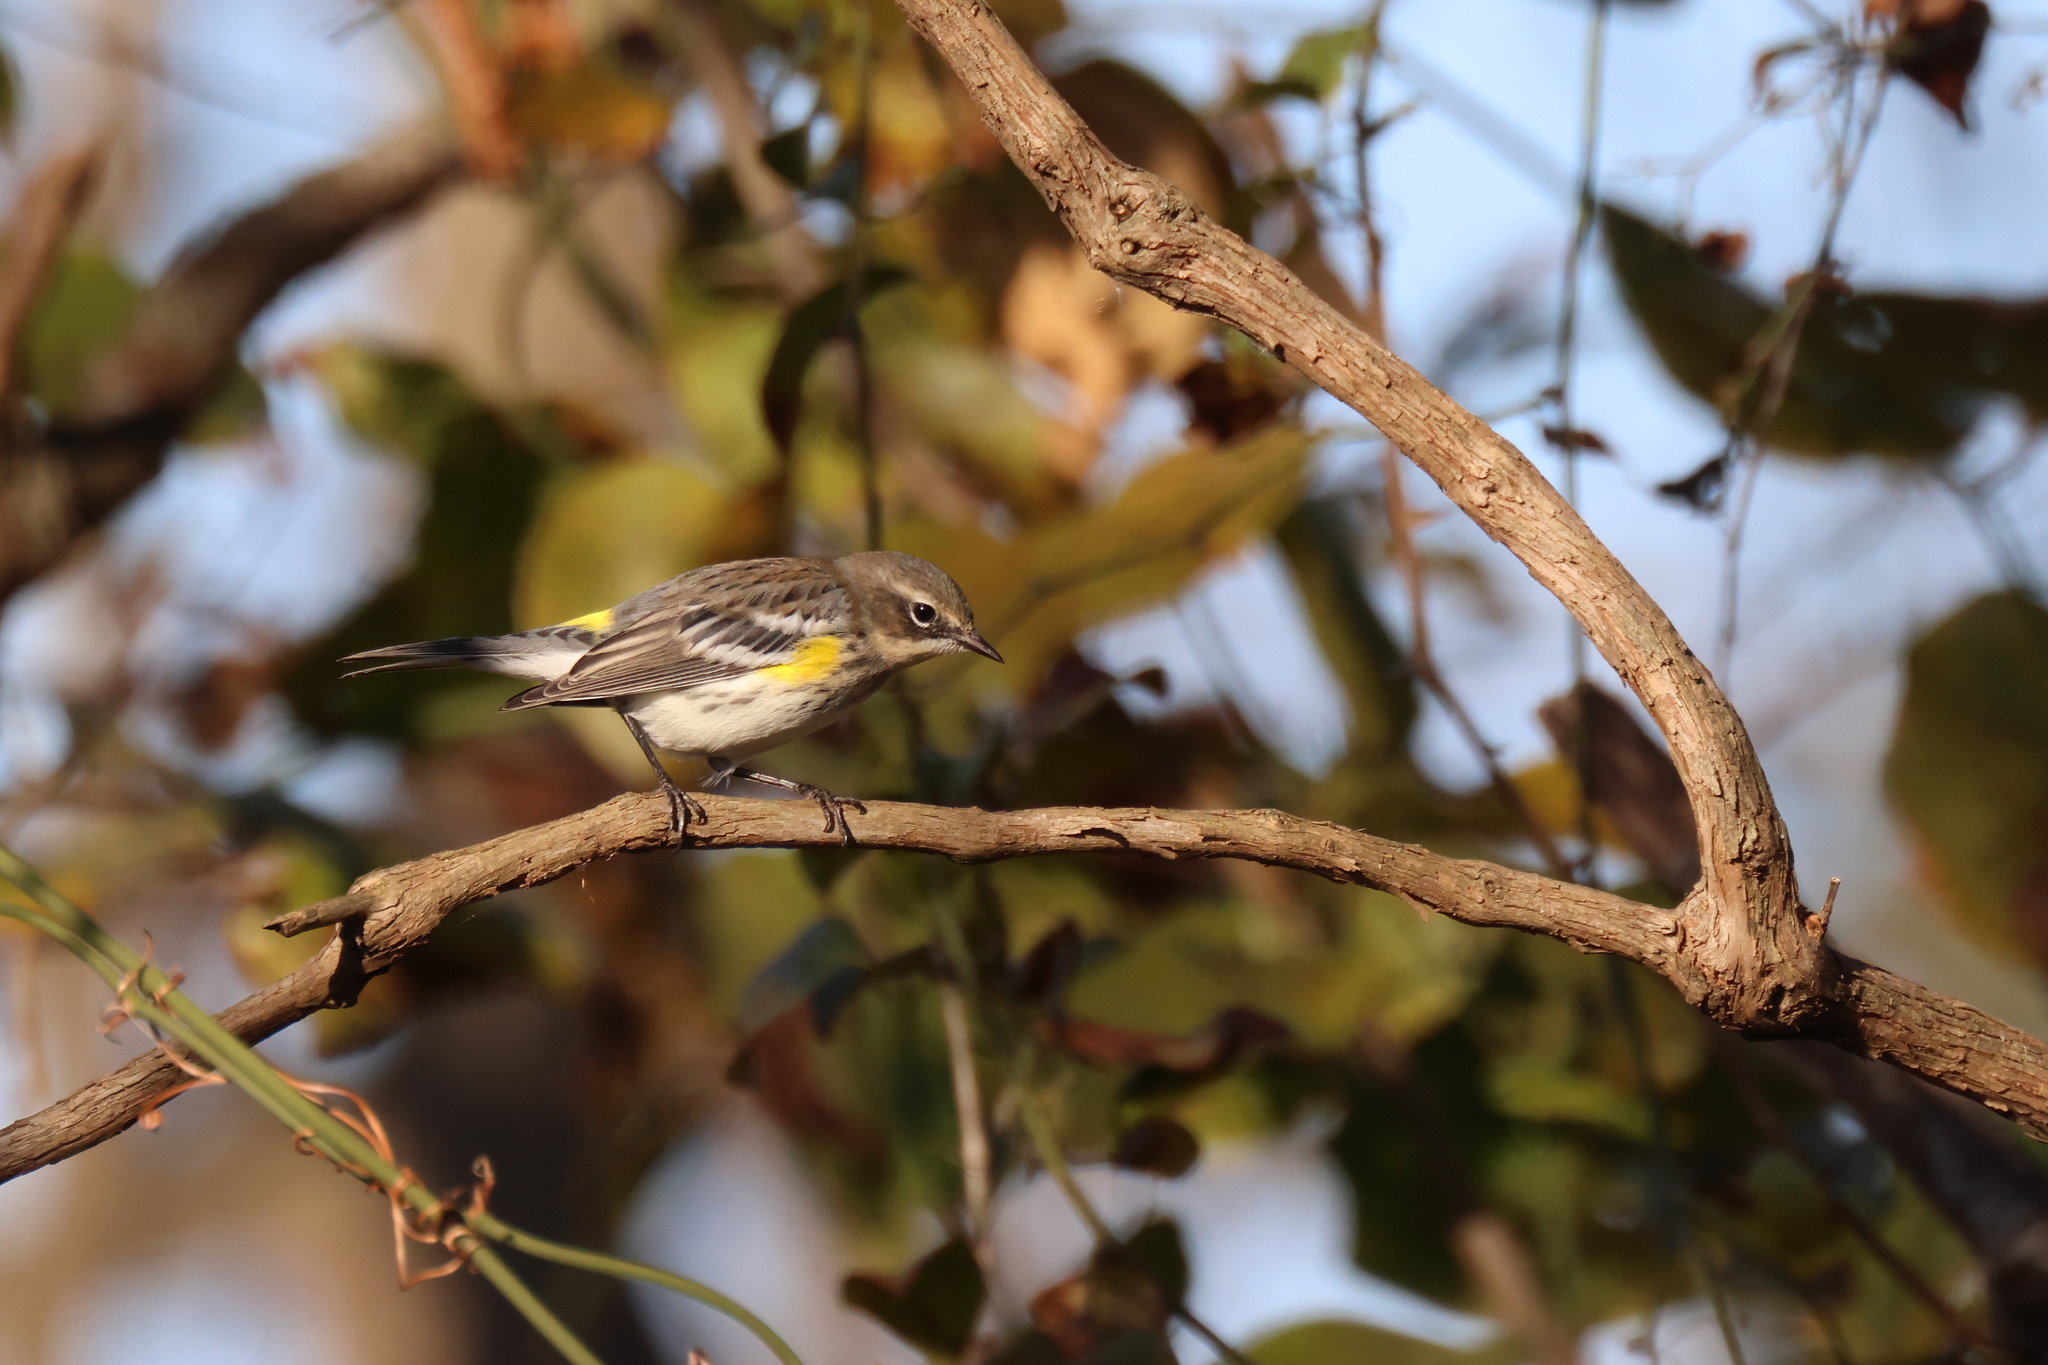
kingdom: Animalia
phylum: Chordata
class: Aves
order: Passeriformes
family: Parulidae
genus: Setophaga
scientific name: Setophaga coronata
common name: Myrtle warbler
